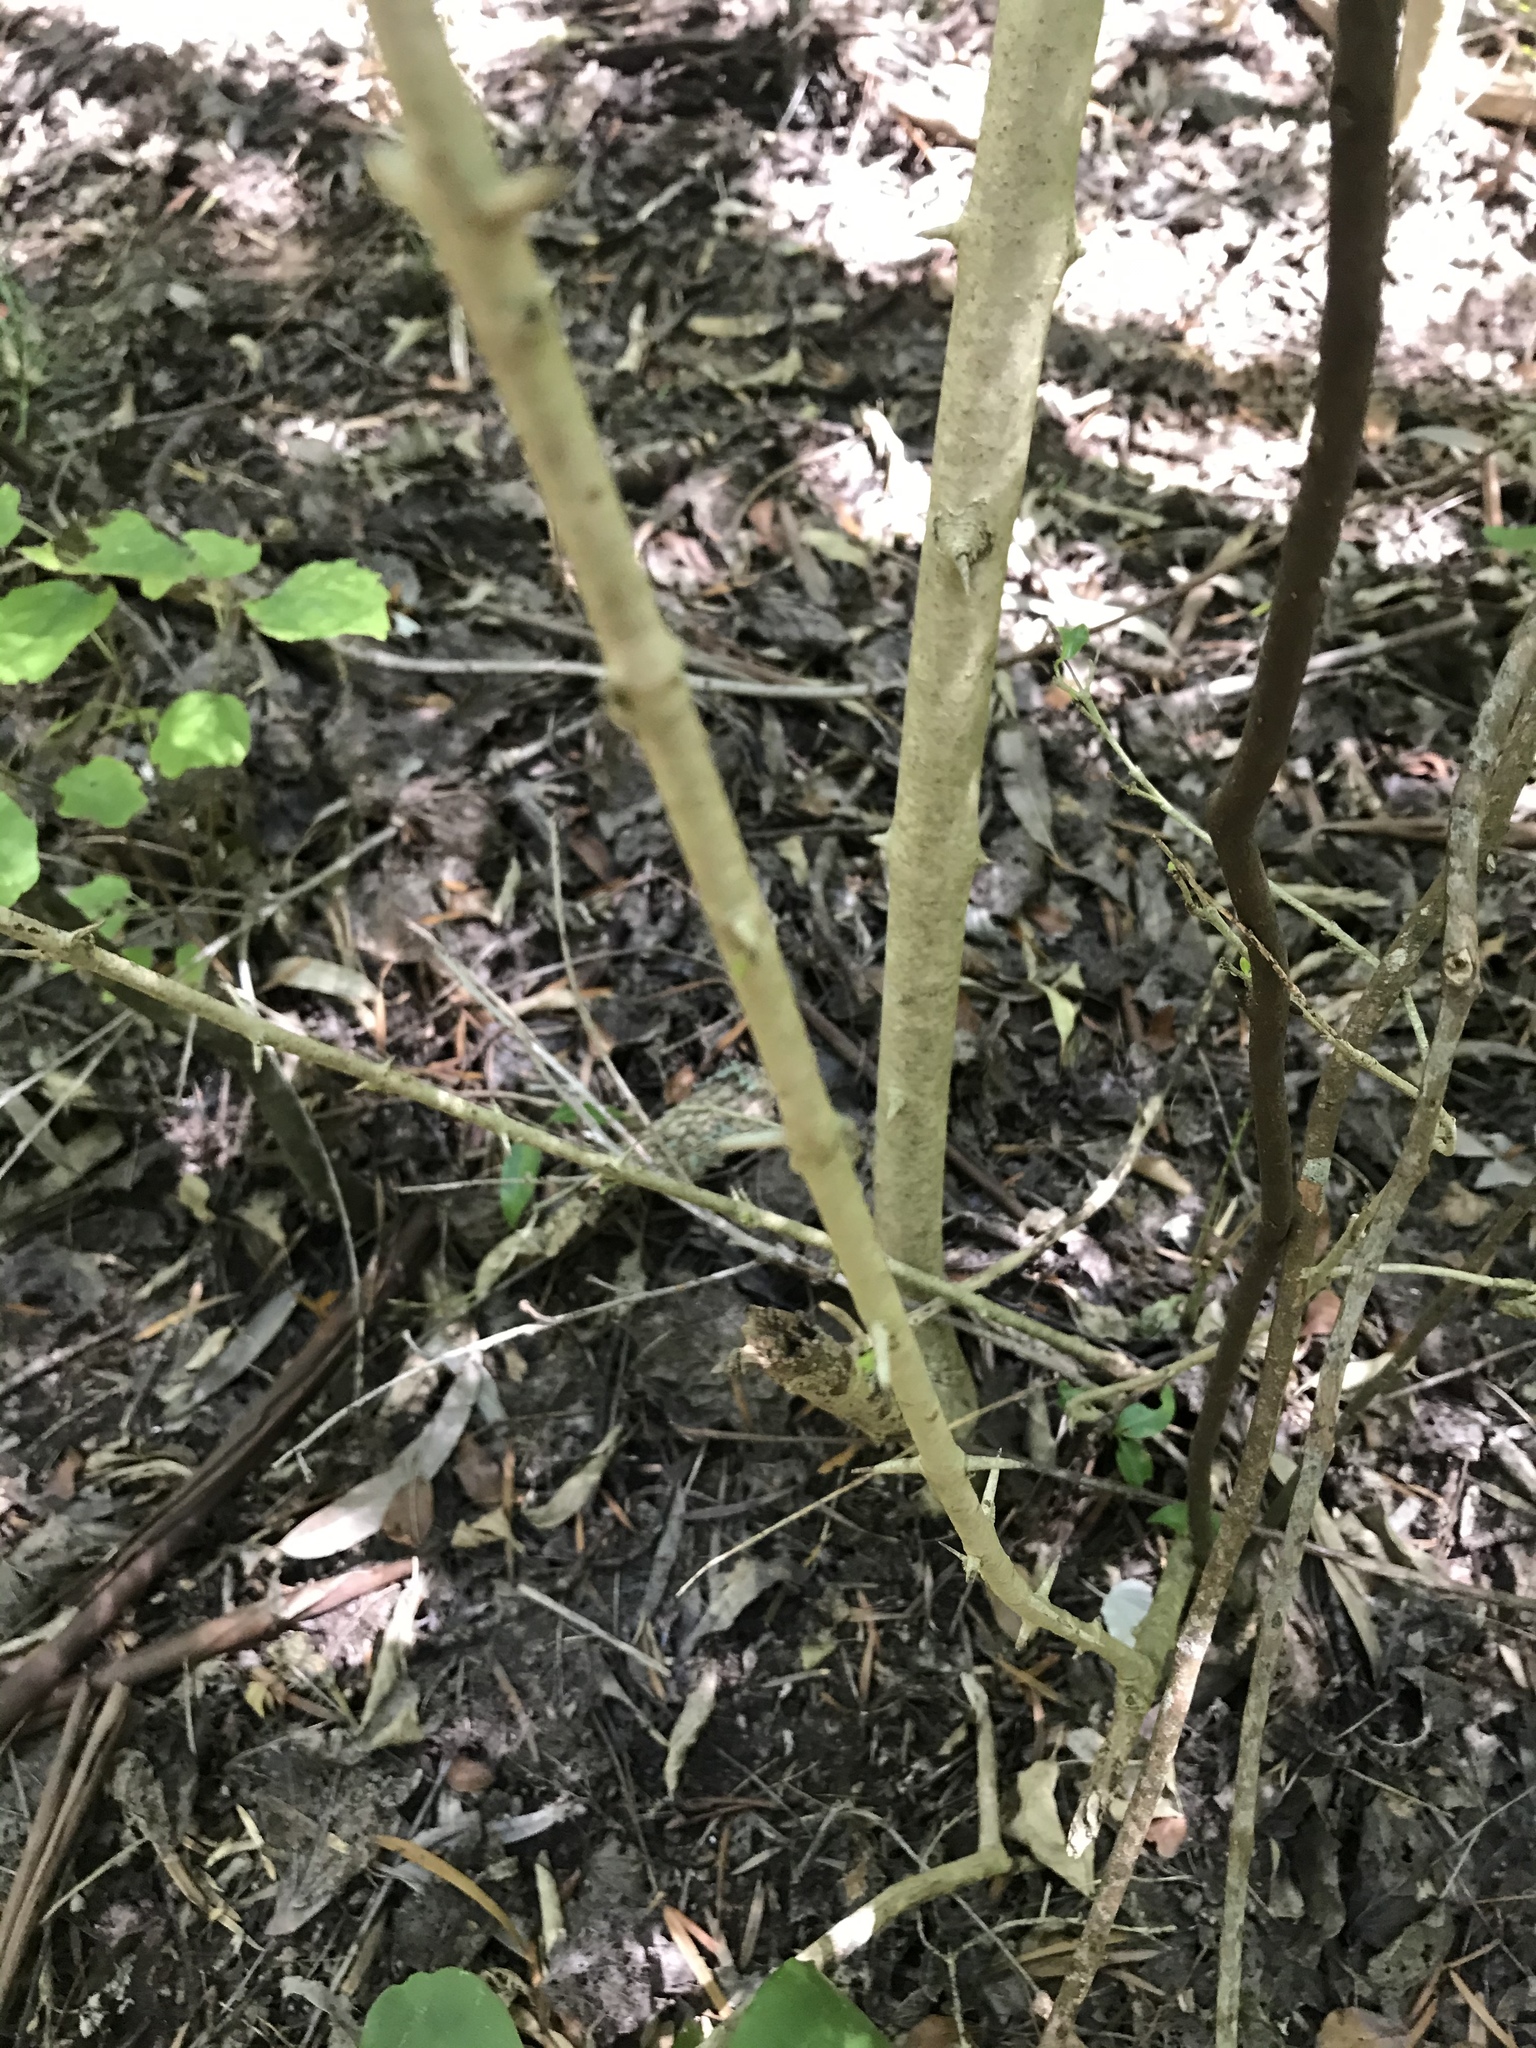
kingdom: Plantae
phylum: Tracheophyta
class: Magnoliopsida
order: Gentianales
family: Rubiaceae
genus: Canthium
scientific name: Canthium inerme
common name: Unarmed turkey-berry
